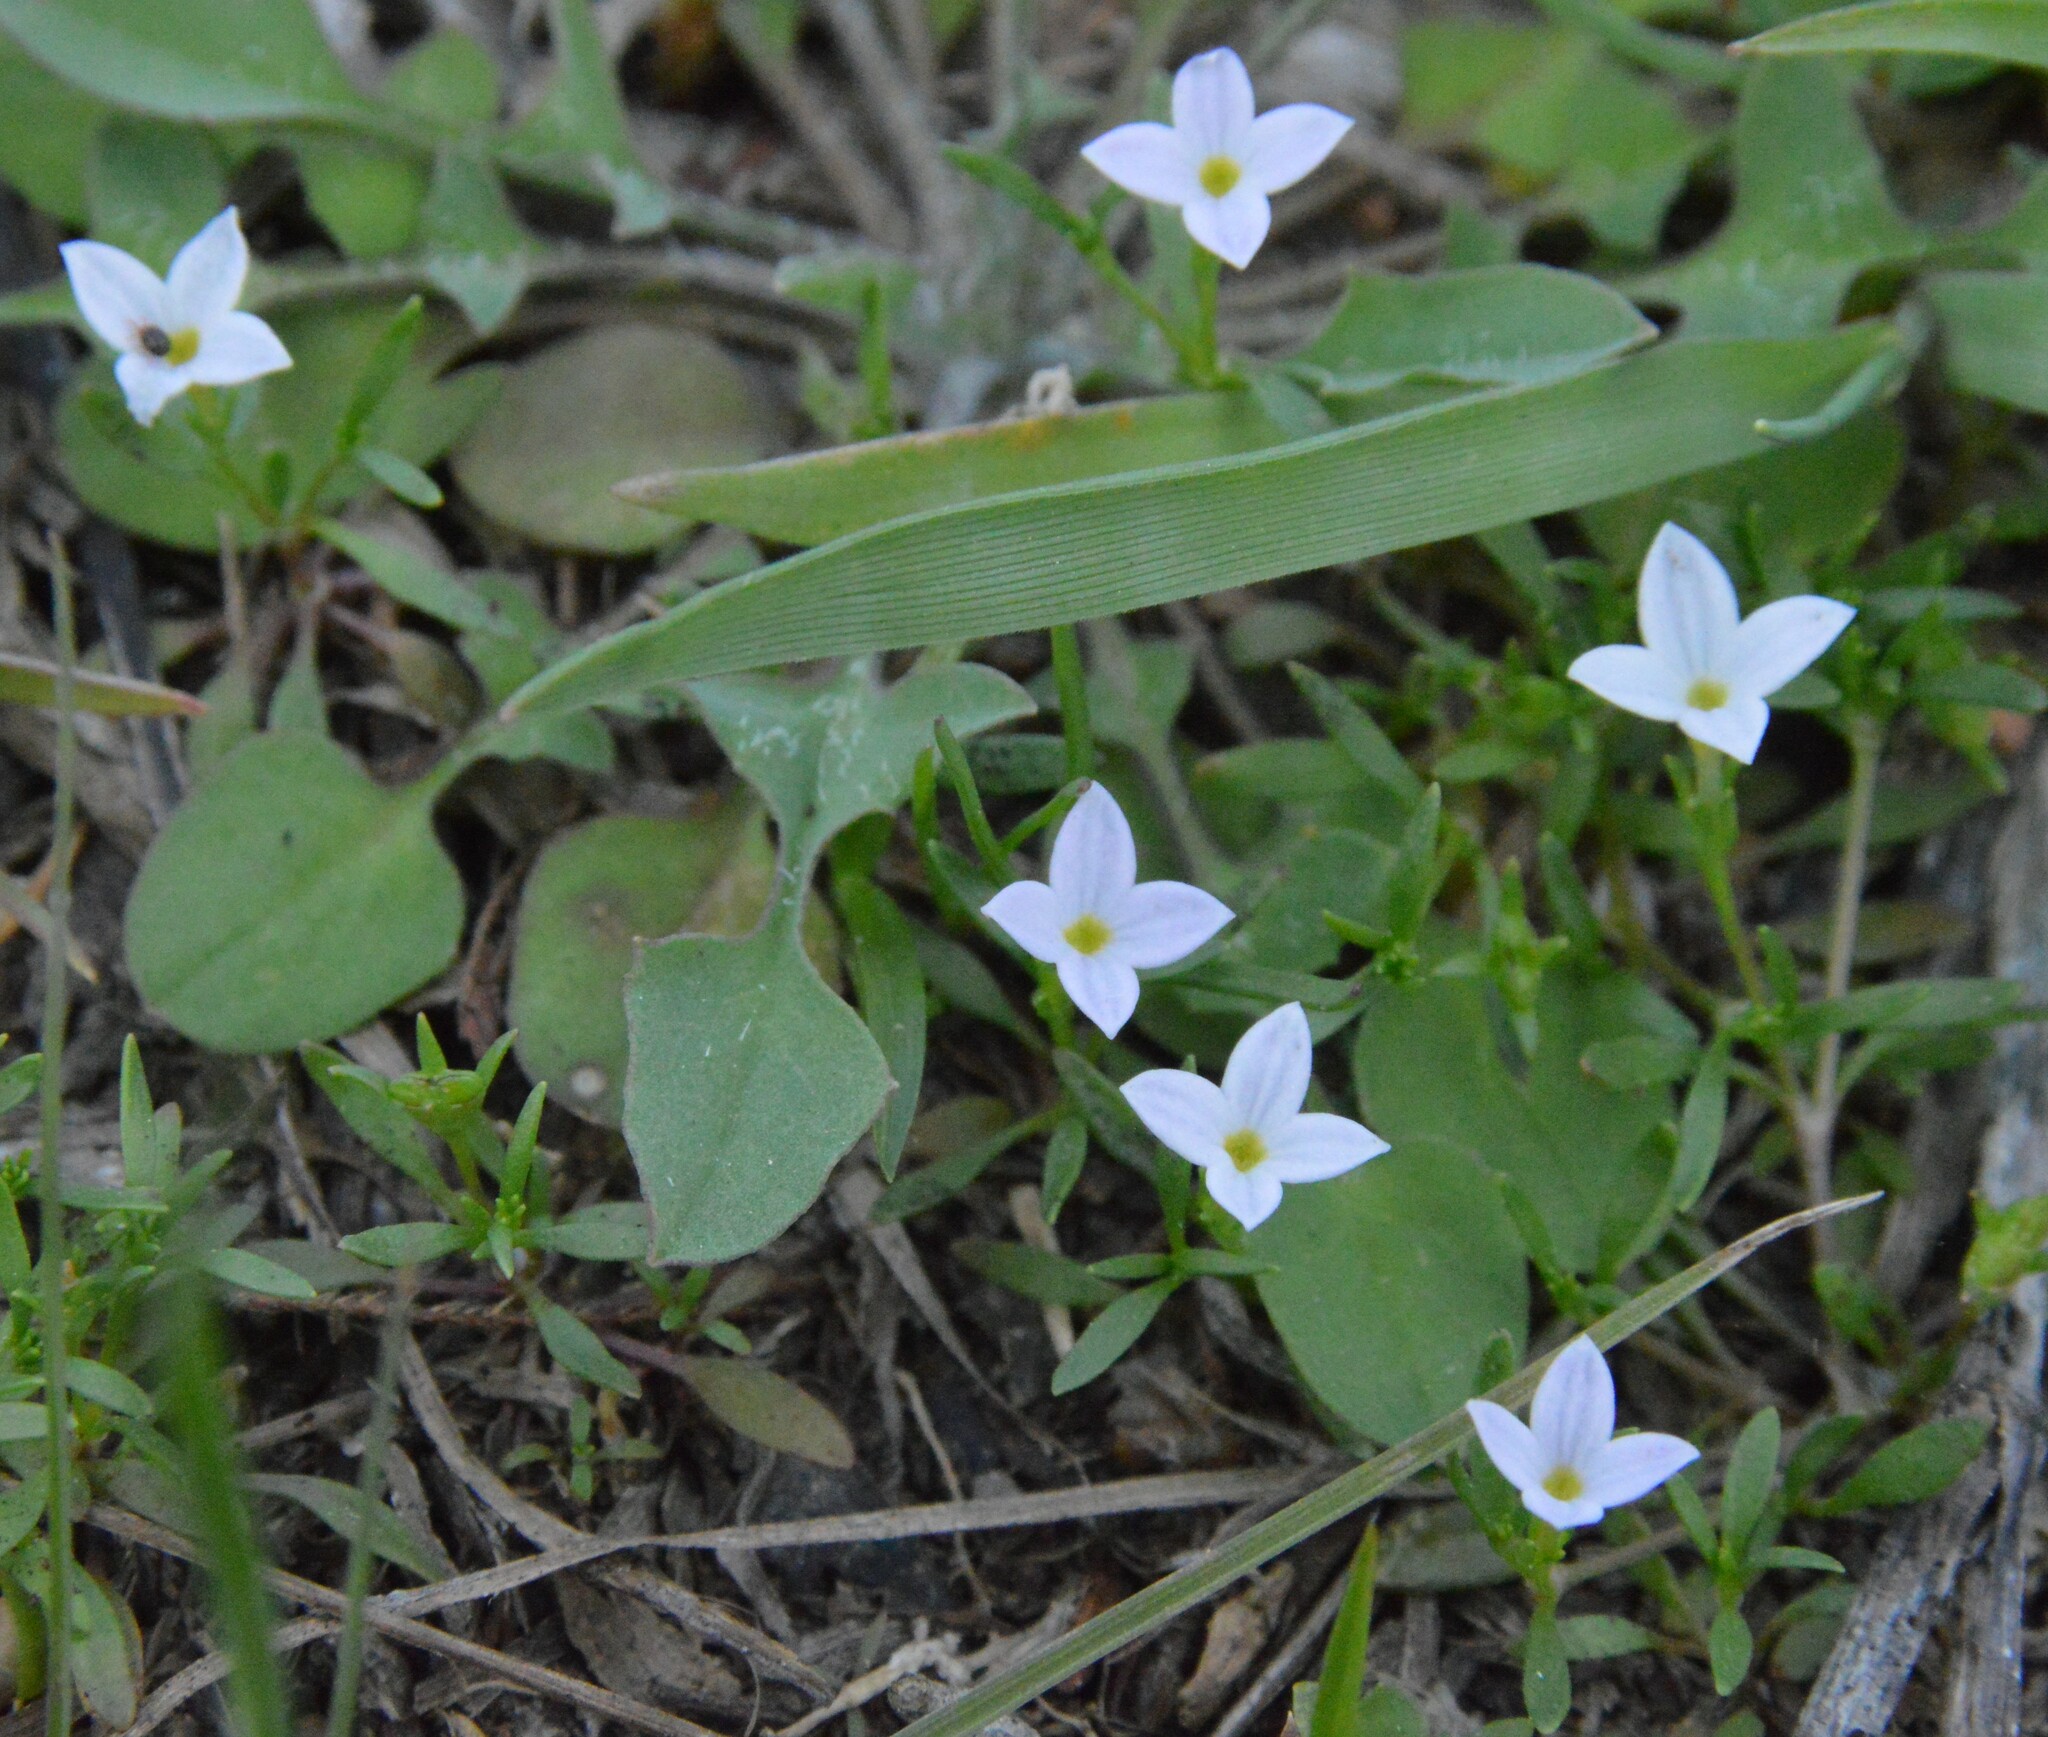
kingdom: Plantae
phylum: Tracheophyta
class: Magnoliopsida
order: Gentianales
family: Rubiaceae
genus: Houstonia
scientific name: Houstonia rosea
